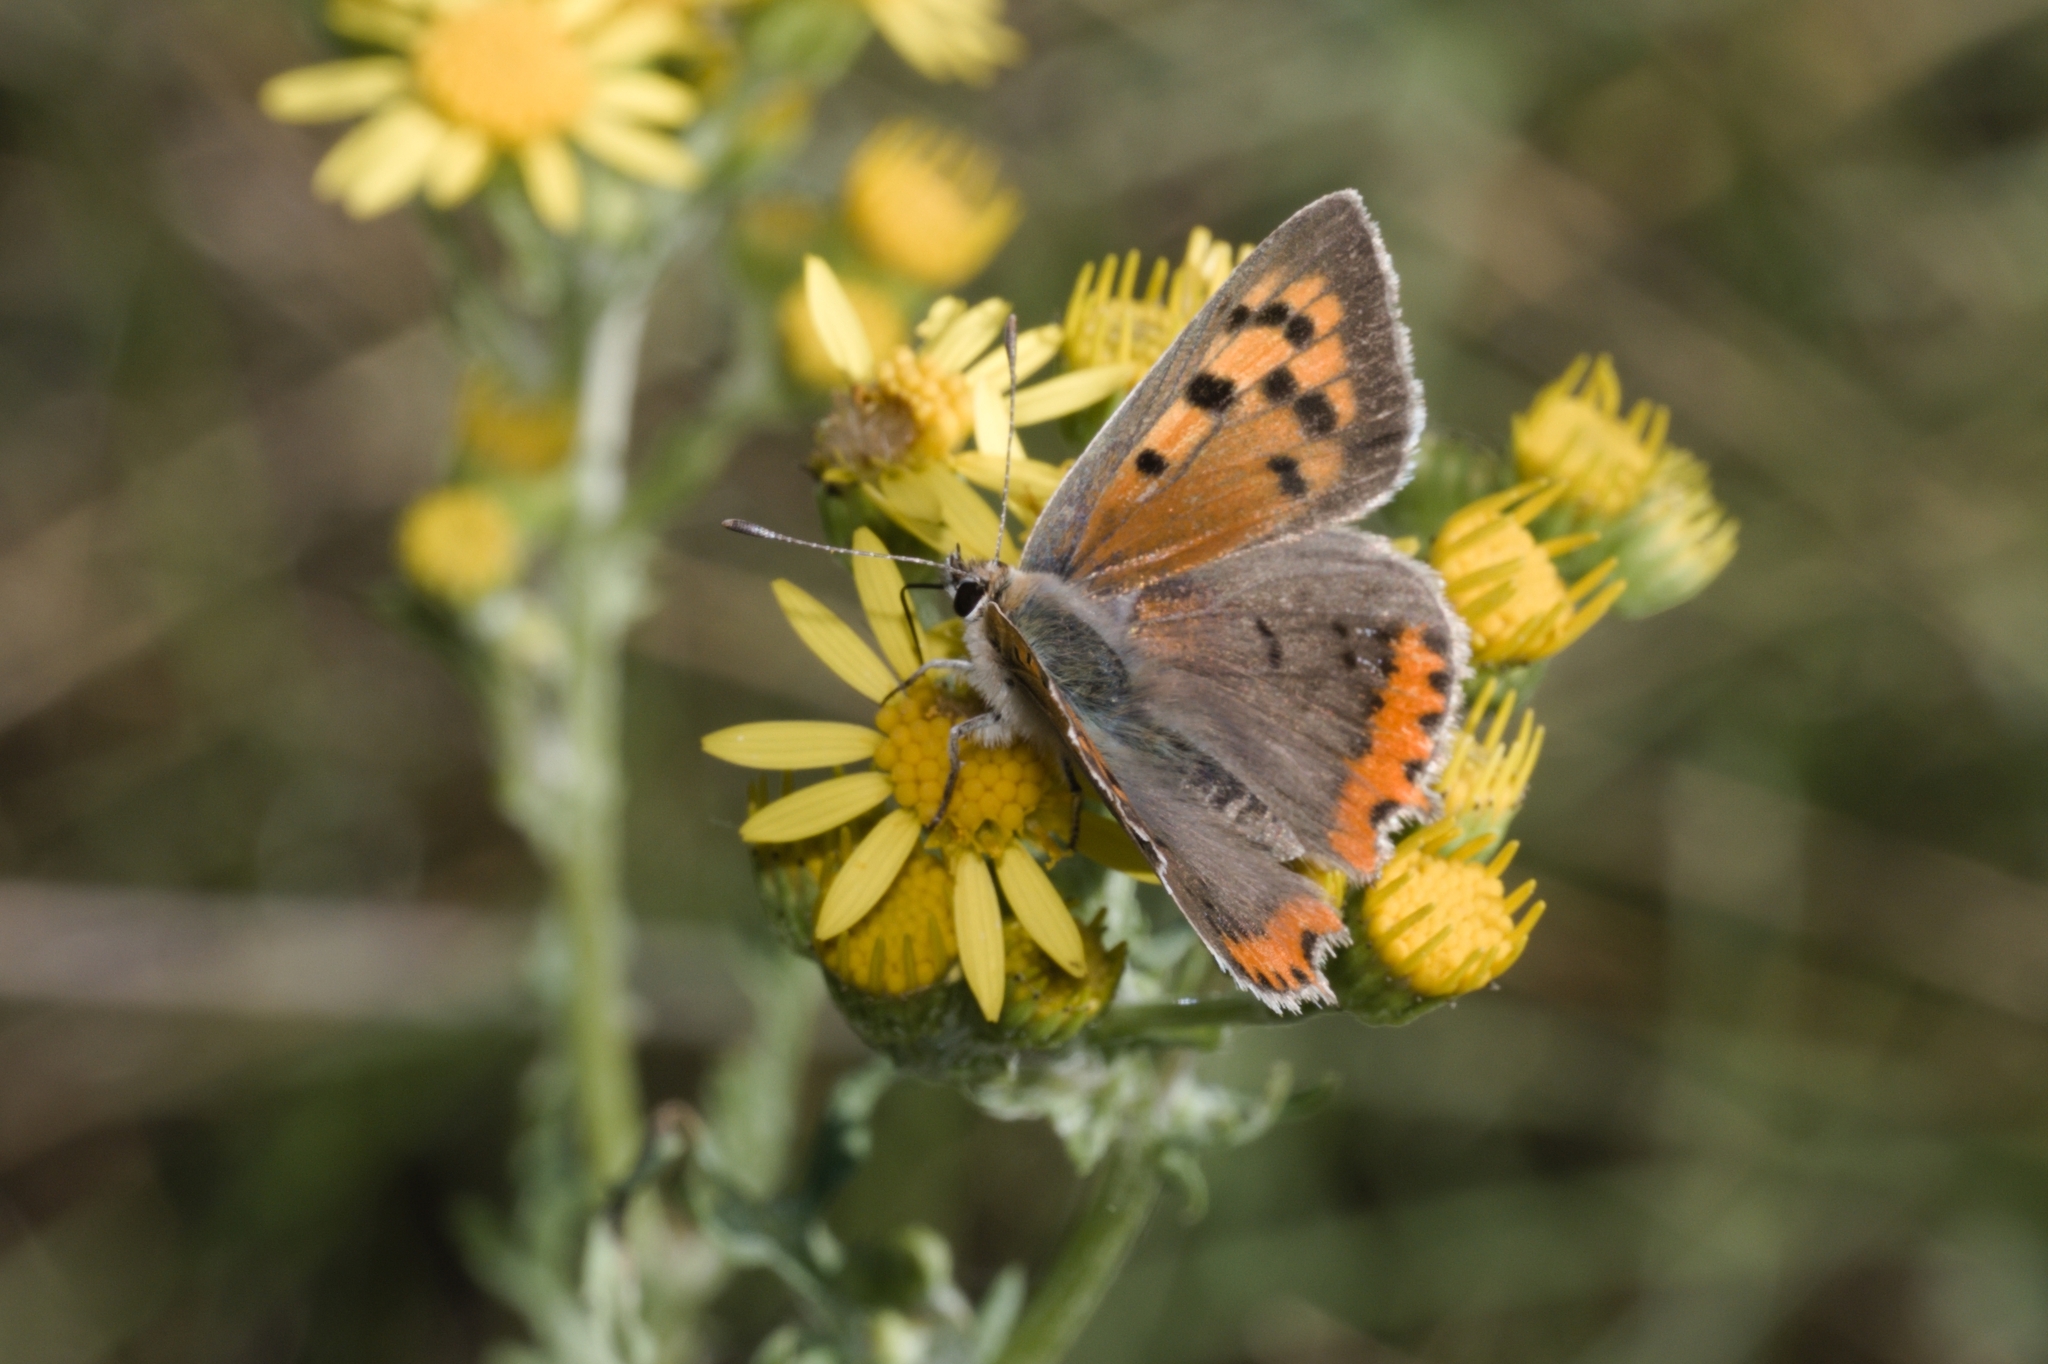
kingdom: Animalia
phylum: Arthropoda
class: Insecta
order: Lepidoptera
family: Lycaenidae
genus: Lycaena
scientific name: Lycaena phlaeas
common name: Small copper
